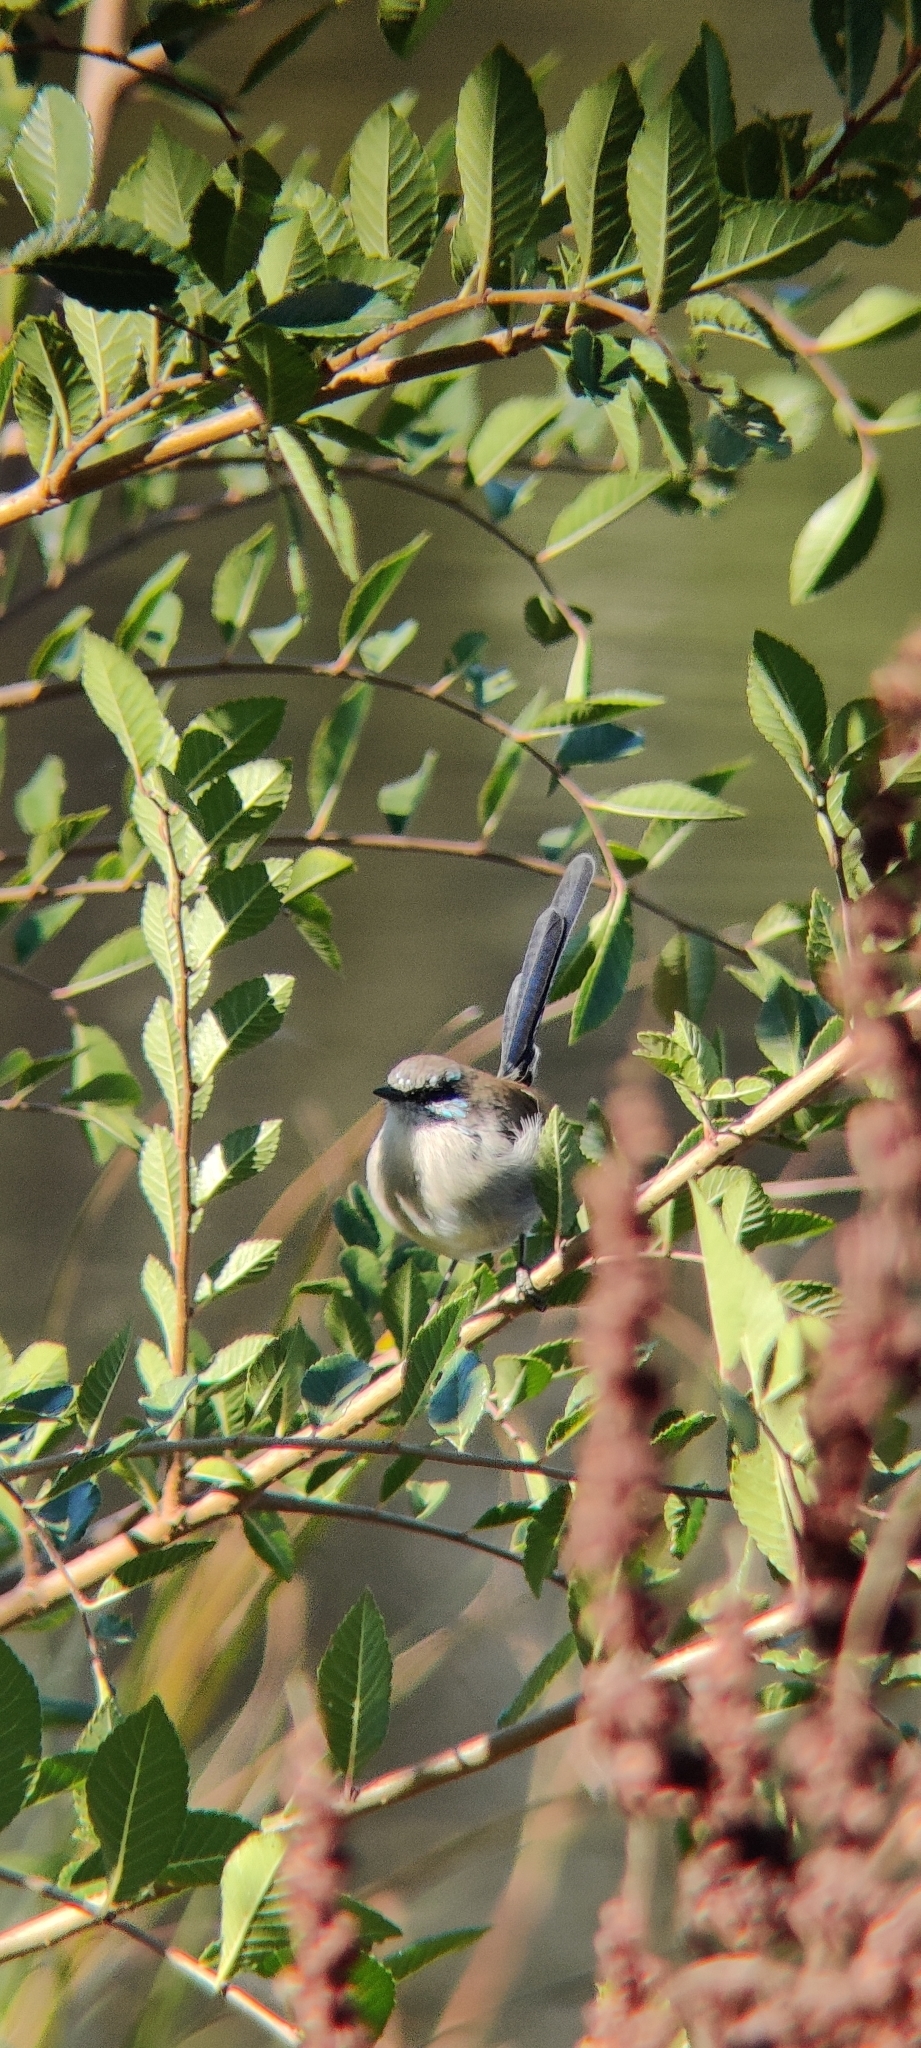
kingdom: Animalia
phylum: Chordata
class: Aves
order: Passeriformes
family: Maluridae
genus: Malurus
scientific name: Malurus cyaneus
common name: Superb fairywren
